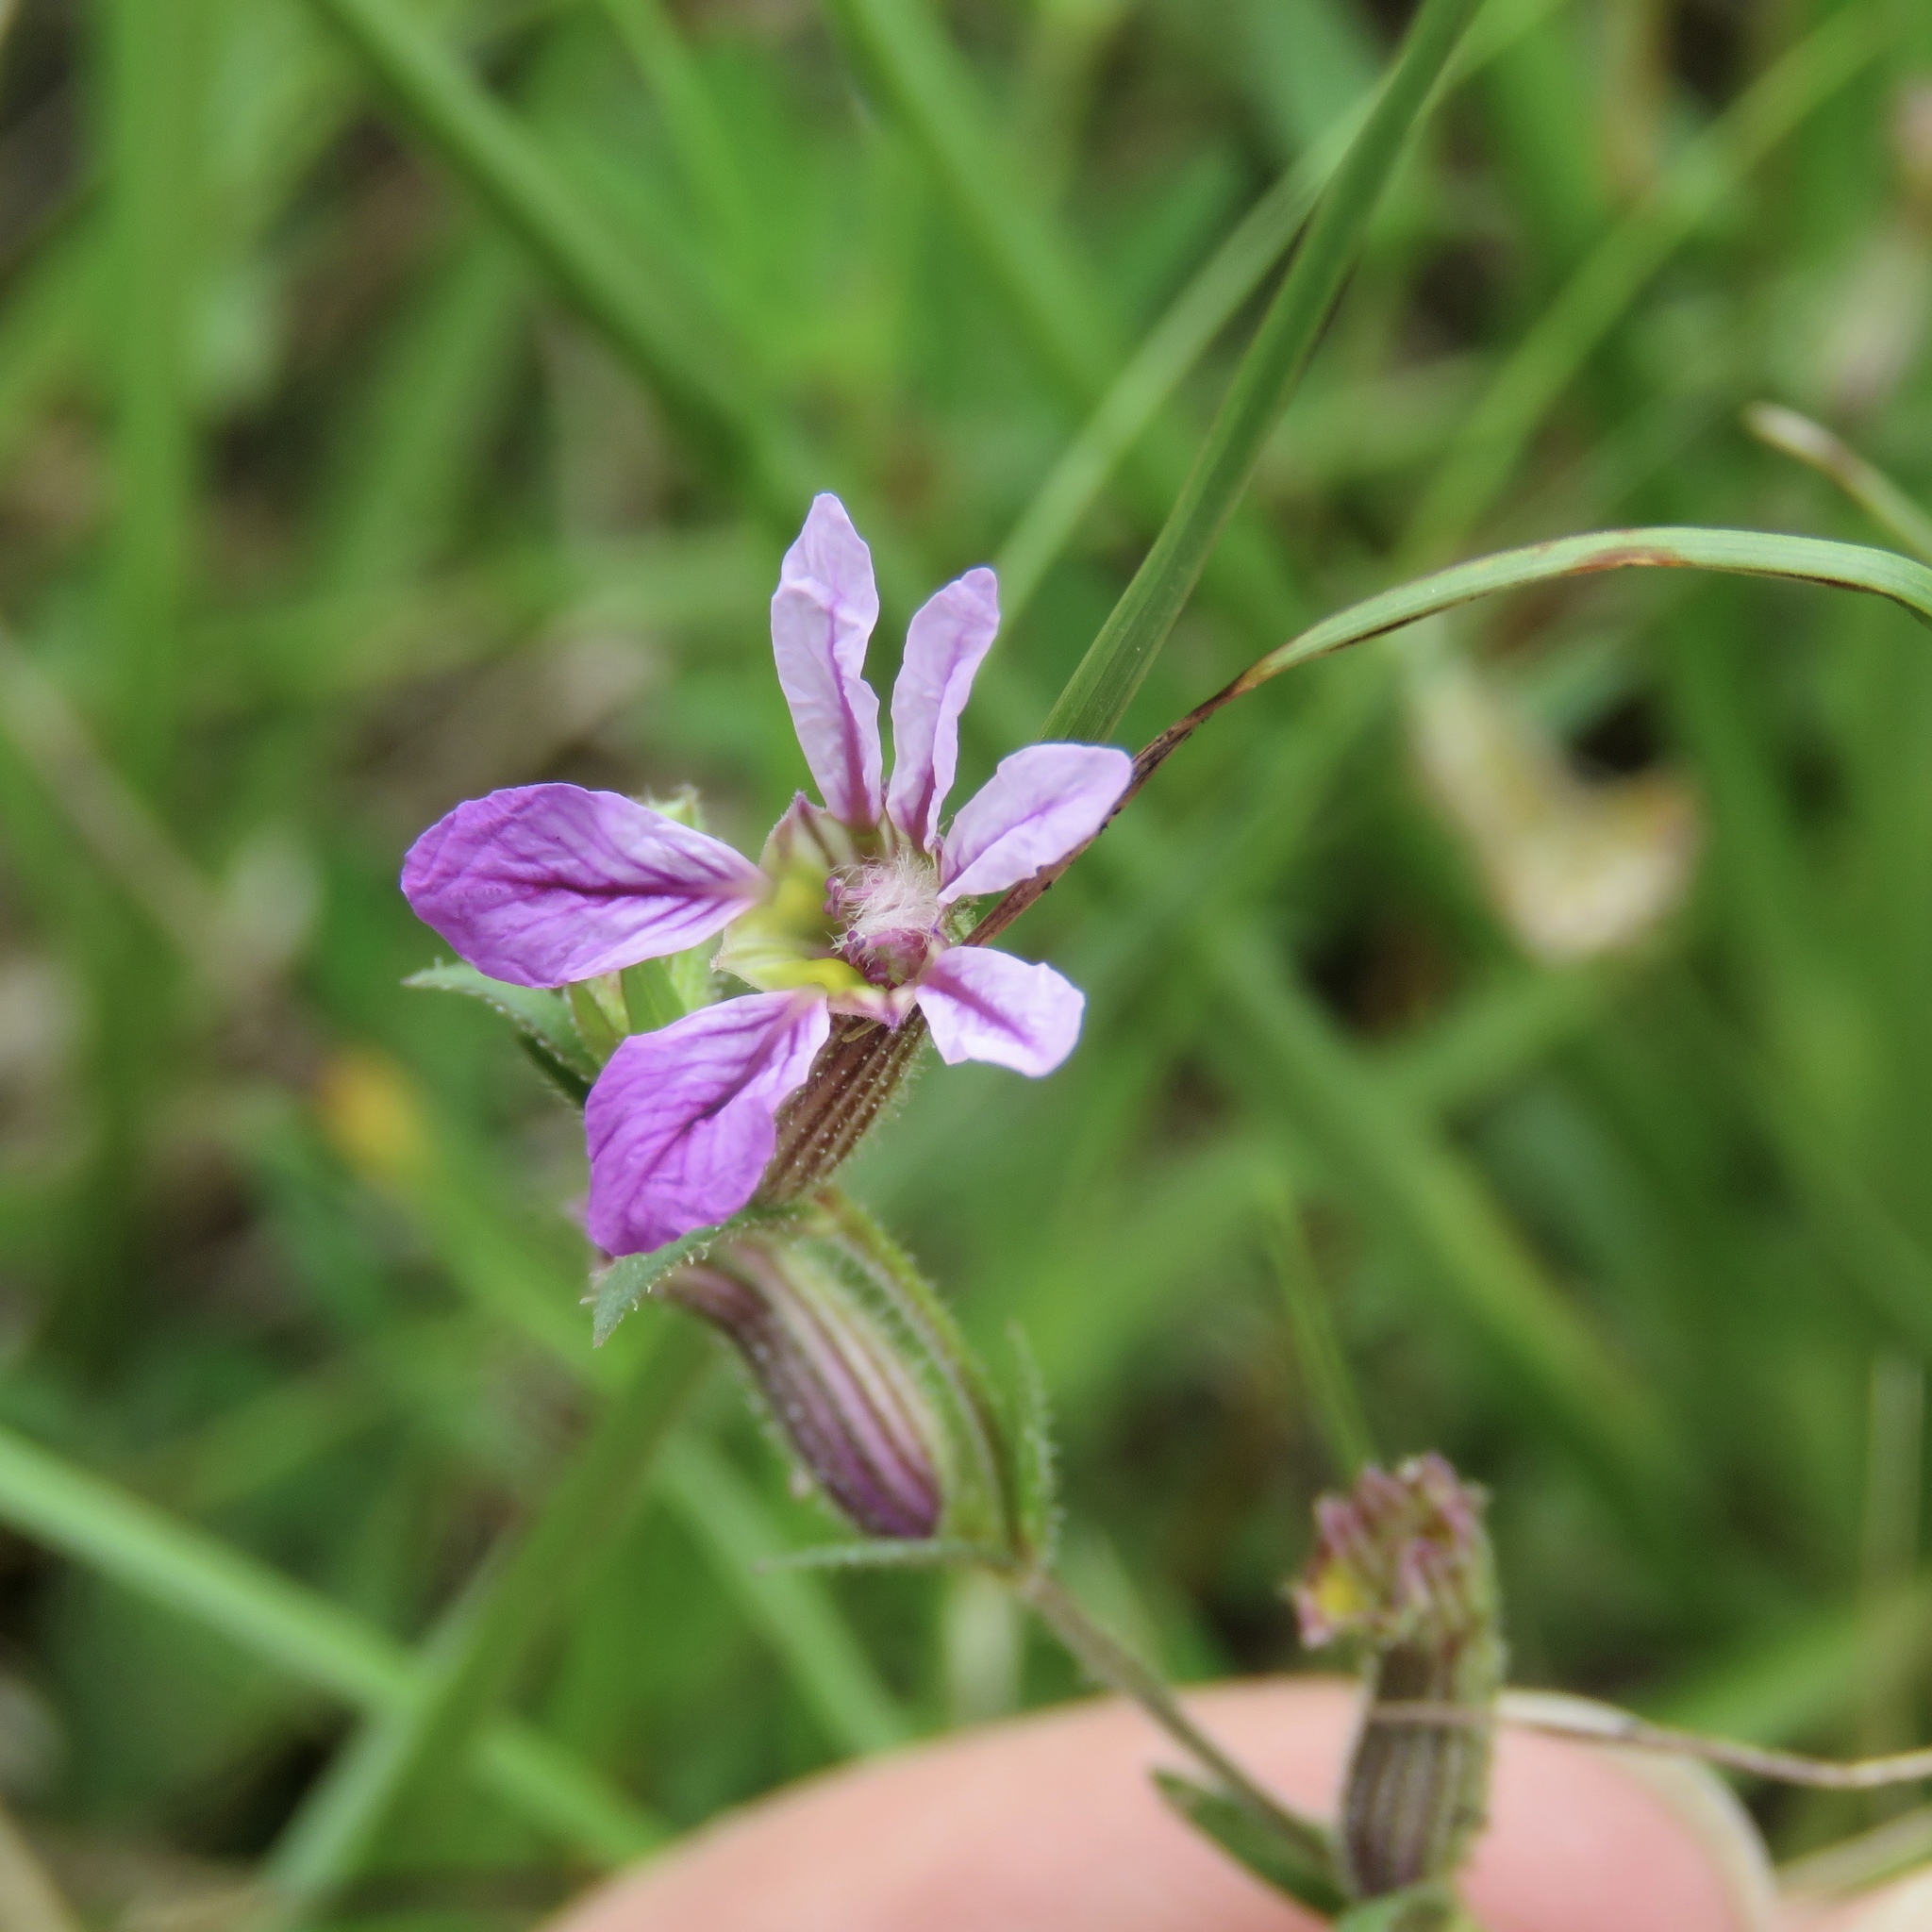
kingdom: Plantae
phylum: Tracheophyta
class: Magnoliopsida
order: Myrtales
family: Lythraceae
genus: Cuphea
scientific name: Cuphea glutinosa
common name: Sticky waxweed
